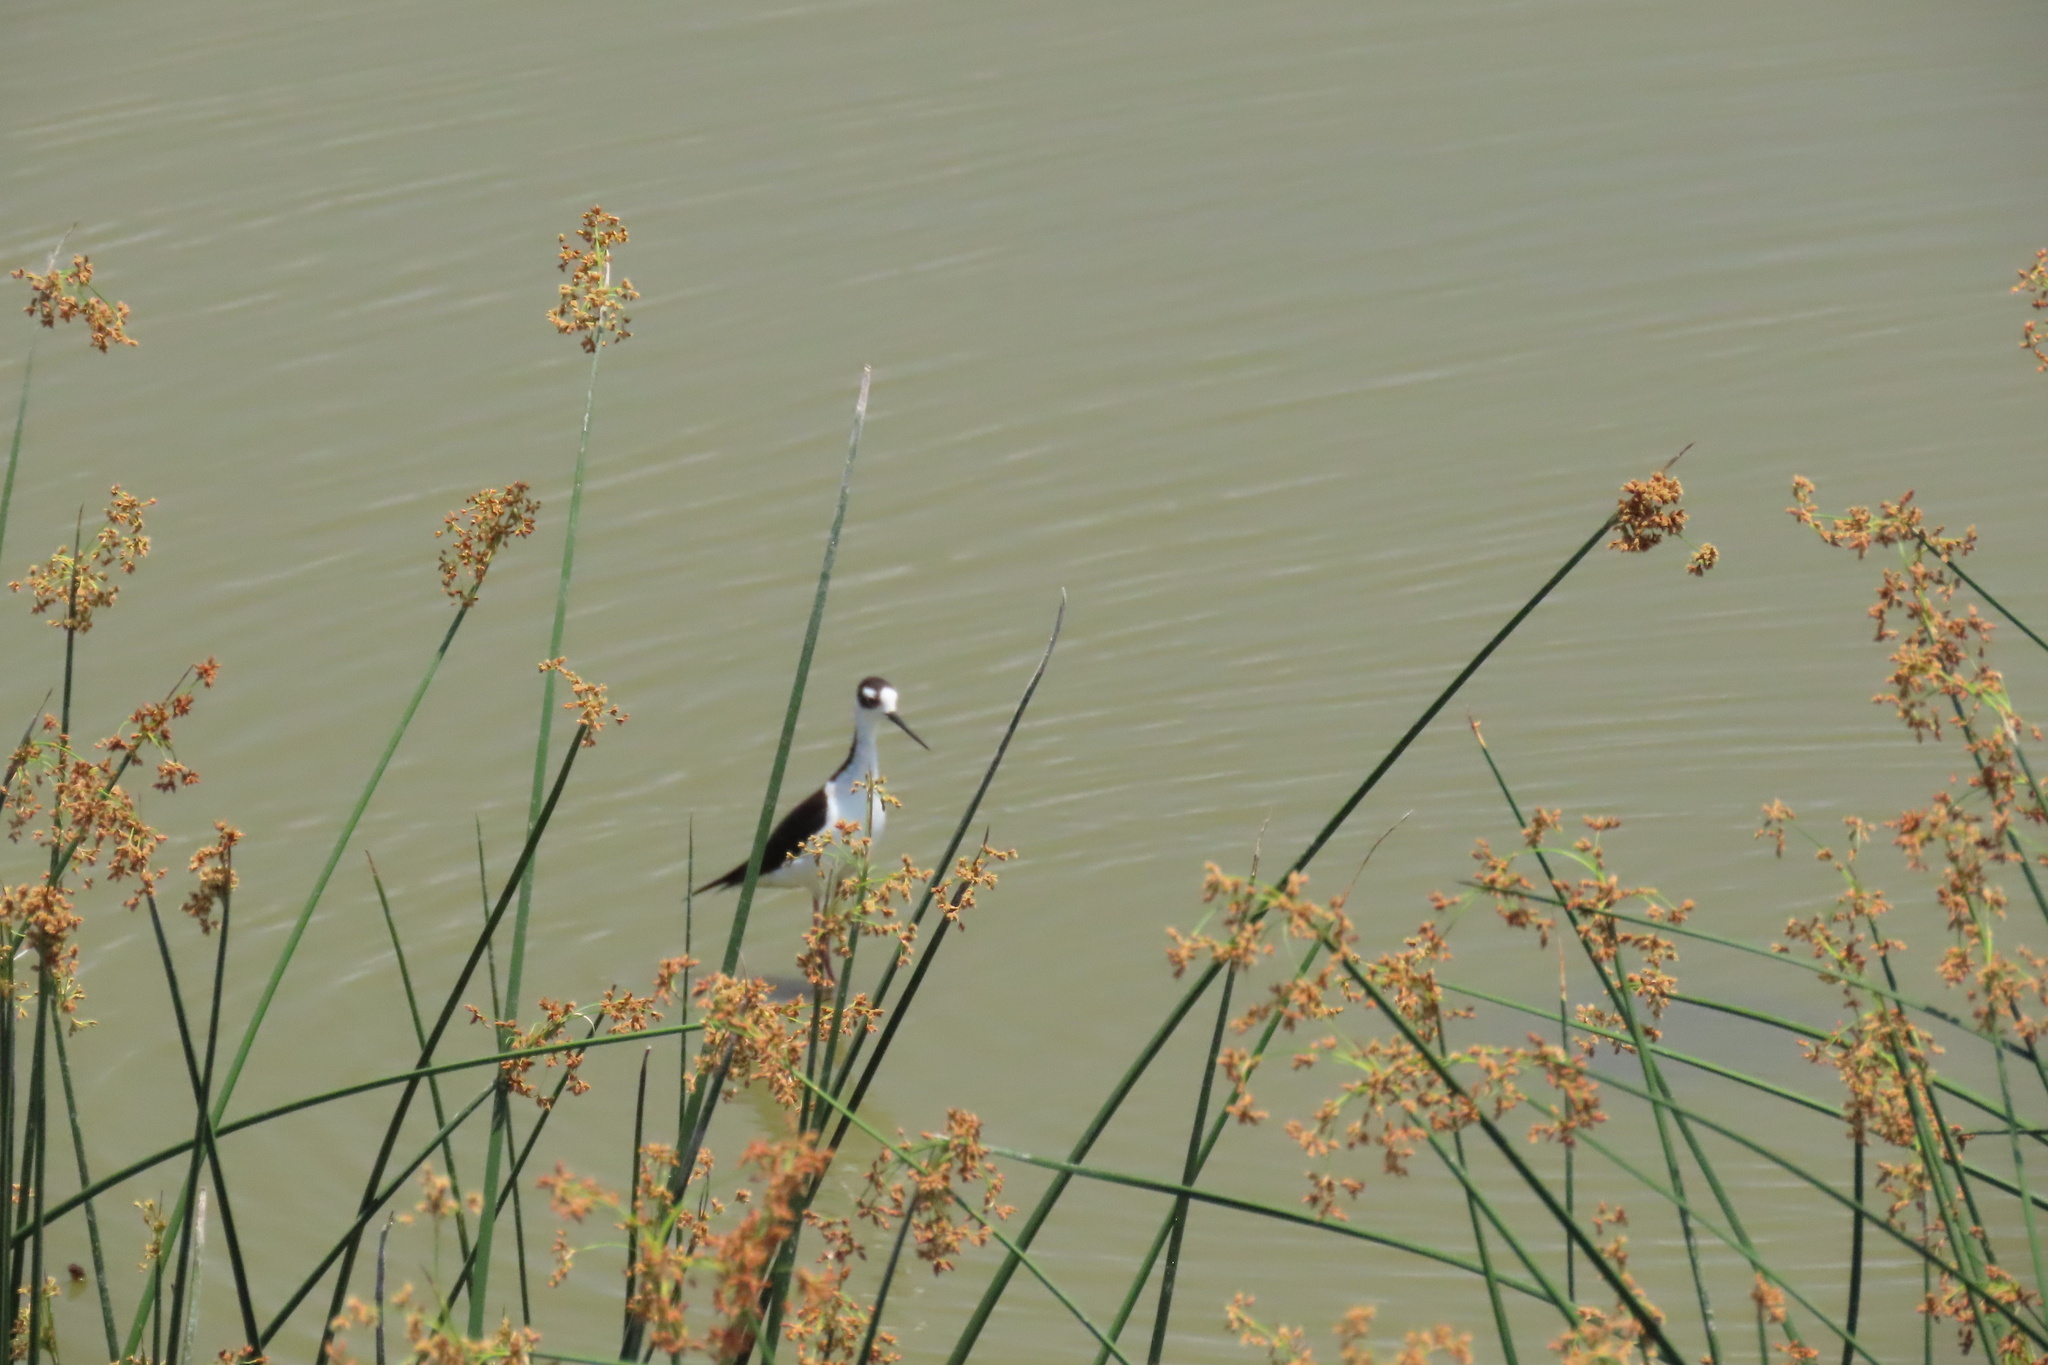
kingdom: Animalia
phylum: Chordata
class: Aves
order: Charadriiformes
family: Recurvirostridae
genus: Himantopus
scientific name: Himantopus mexicanus
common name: Black-necked stilt
